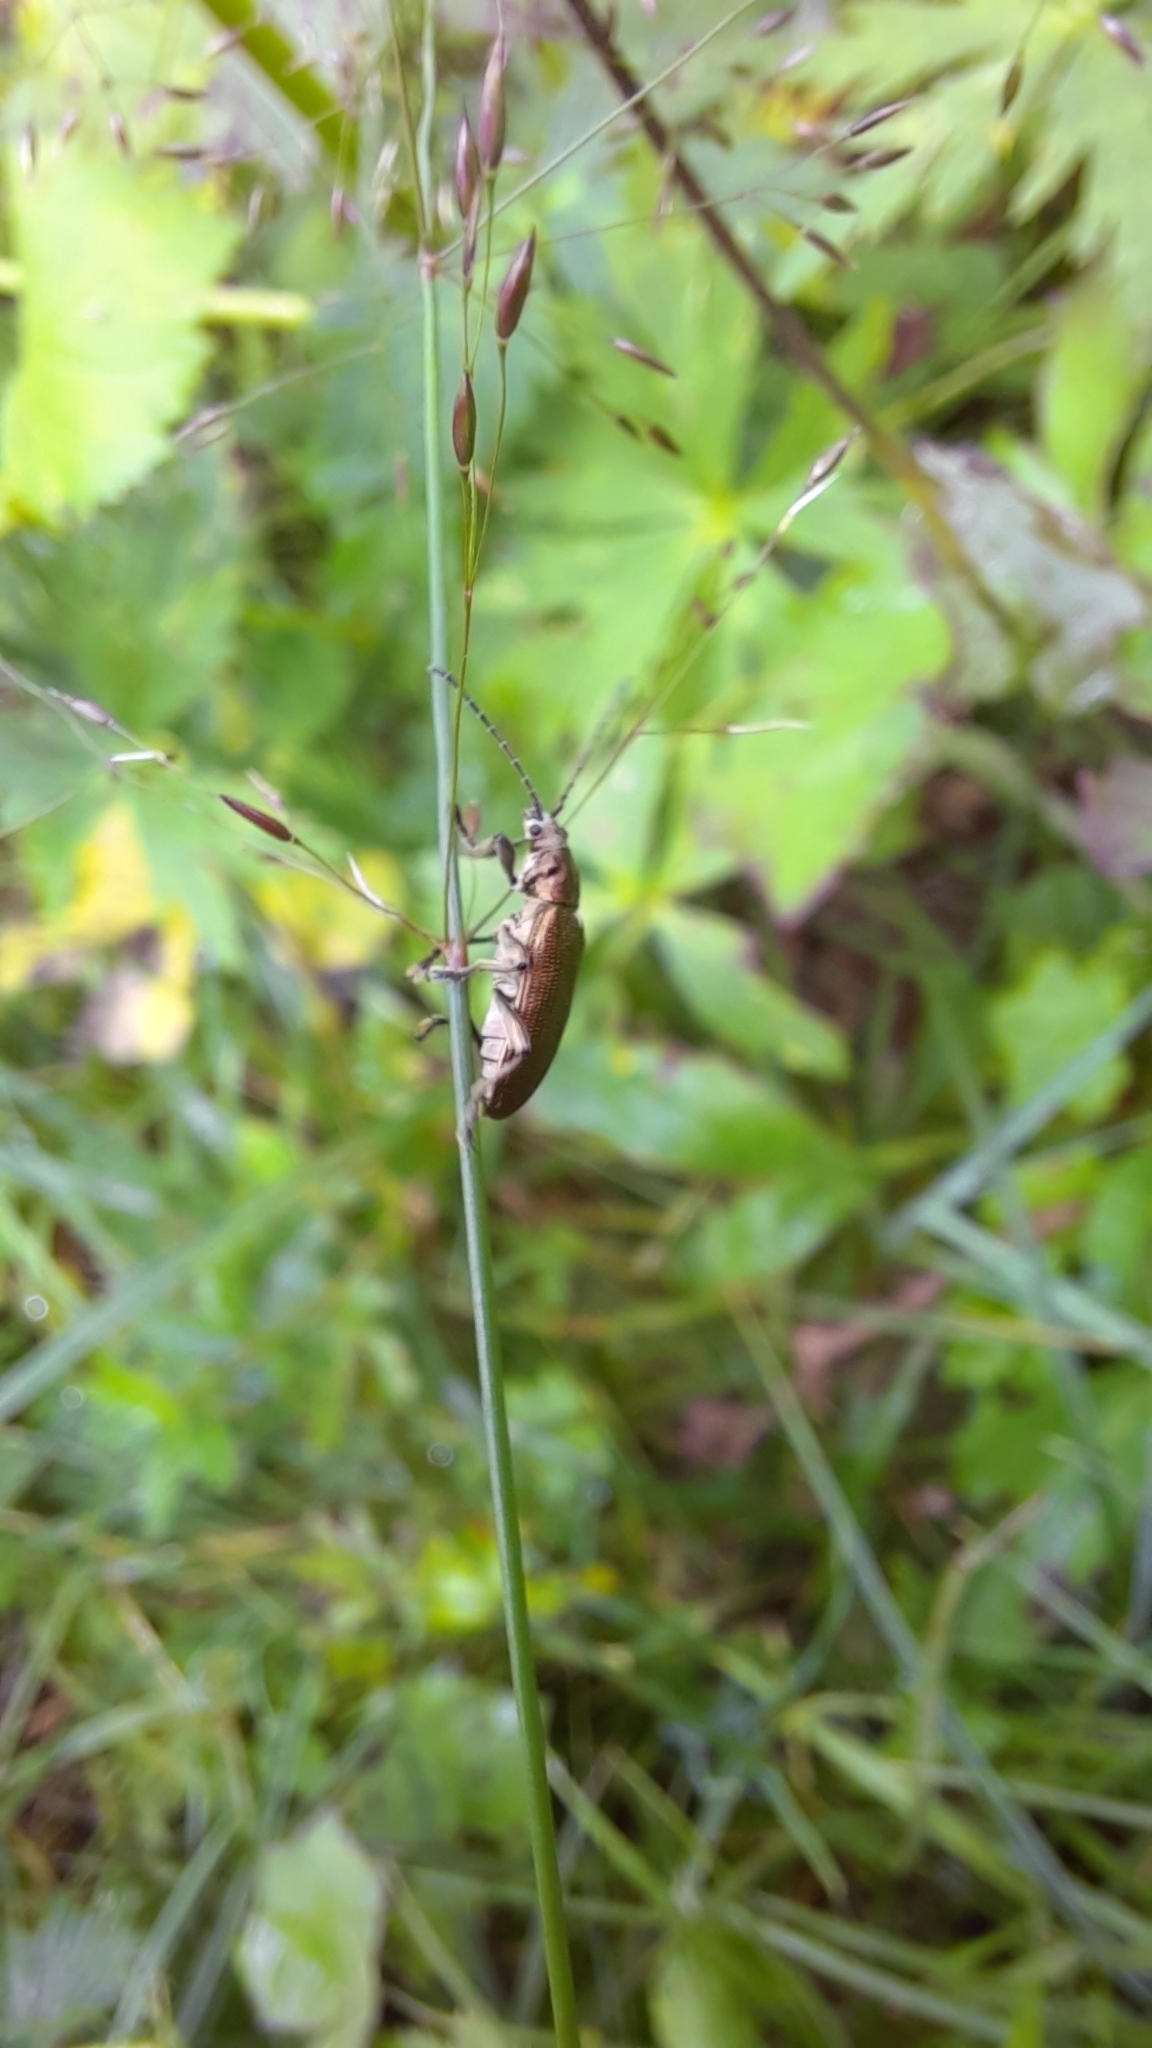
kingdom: Animalia
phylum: Arthropoda
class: Insecta
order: Coleoptera
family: Chrysomelidae
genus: Plateumaris
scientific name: Plateumaris sericea
